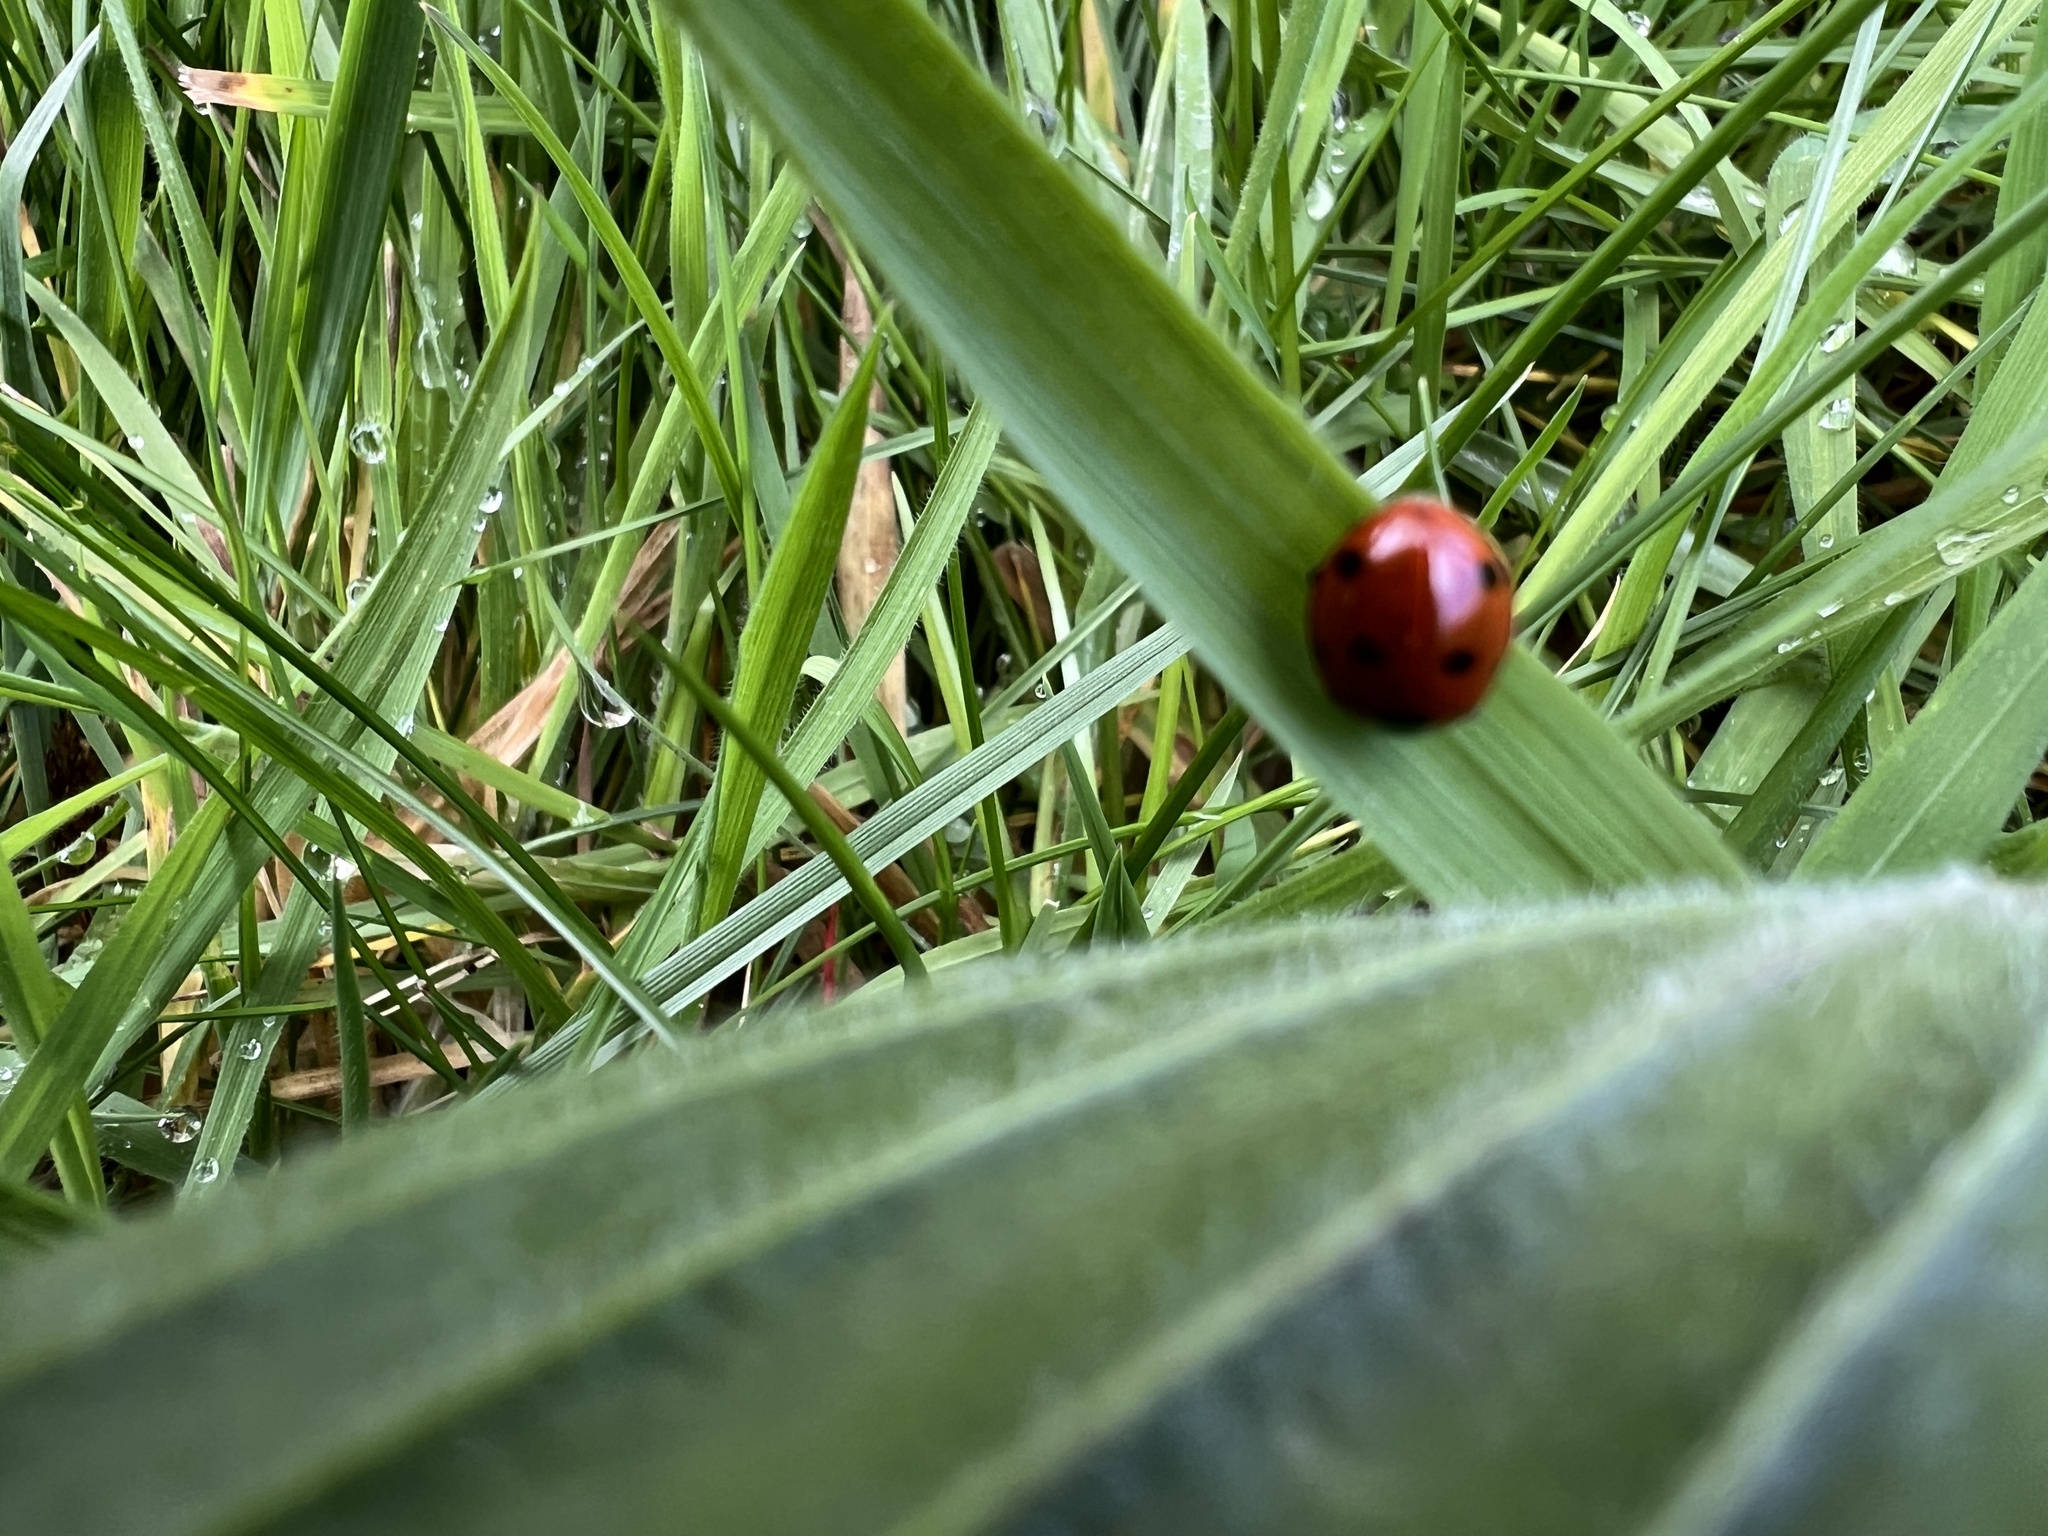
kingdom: Animalia
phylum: Arthropoda
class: Insecta
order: Coleoptera
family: Coccinellidae
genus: Coccinella
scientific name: Coccinella septempunctata
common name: Sevenspotted lady beetle
